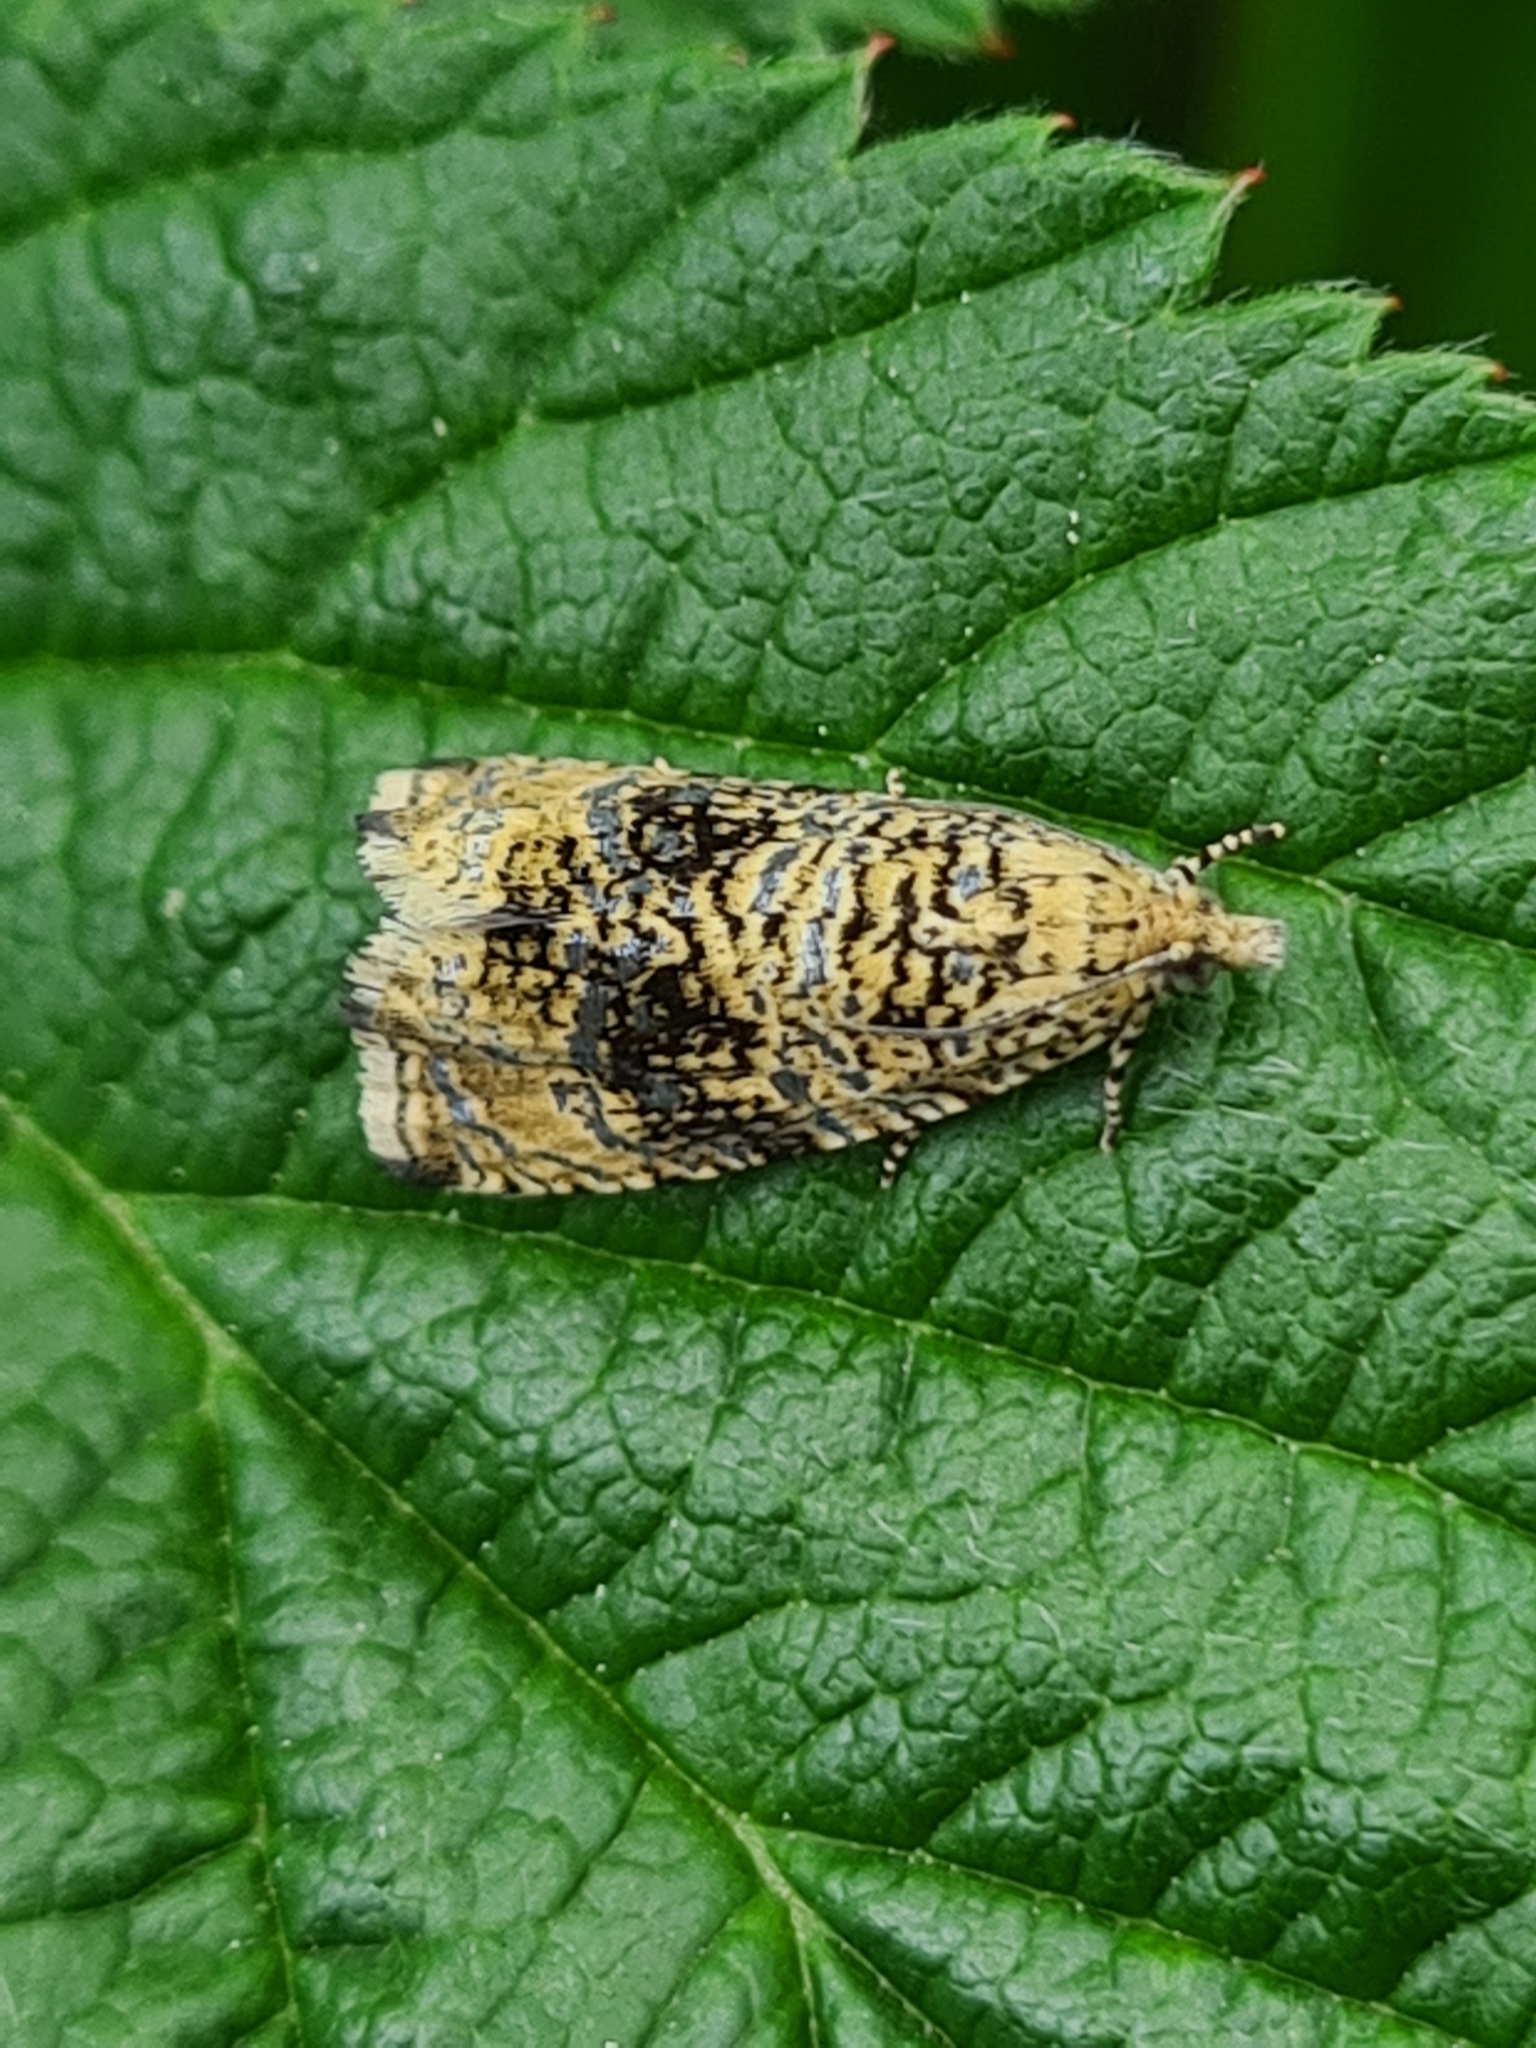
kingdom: Animalia
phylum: Arthropoda
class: Insecta
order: Lepidoptera
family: Tortricidae
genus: Syricoris
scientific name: Syricoris lacunana
